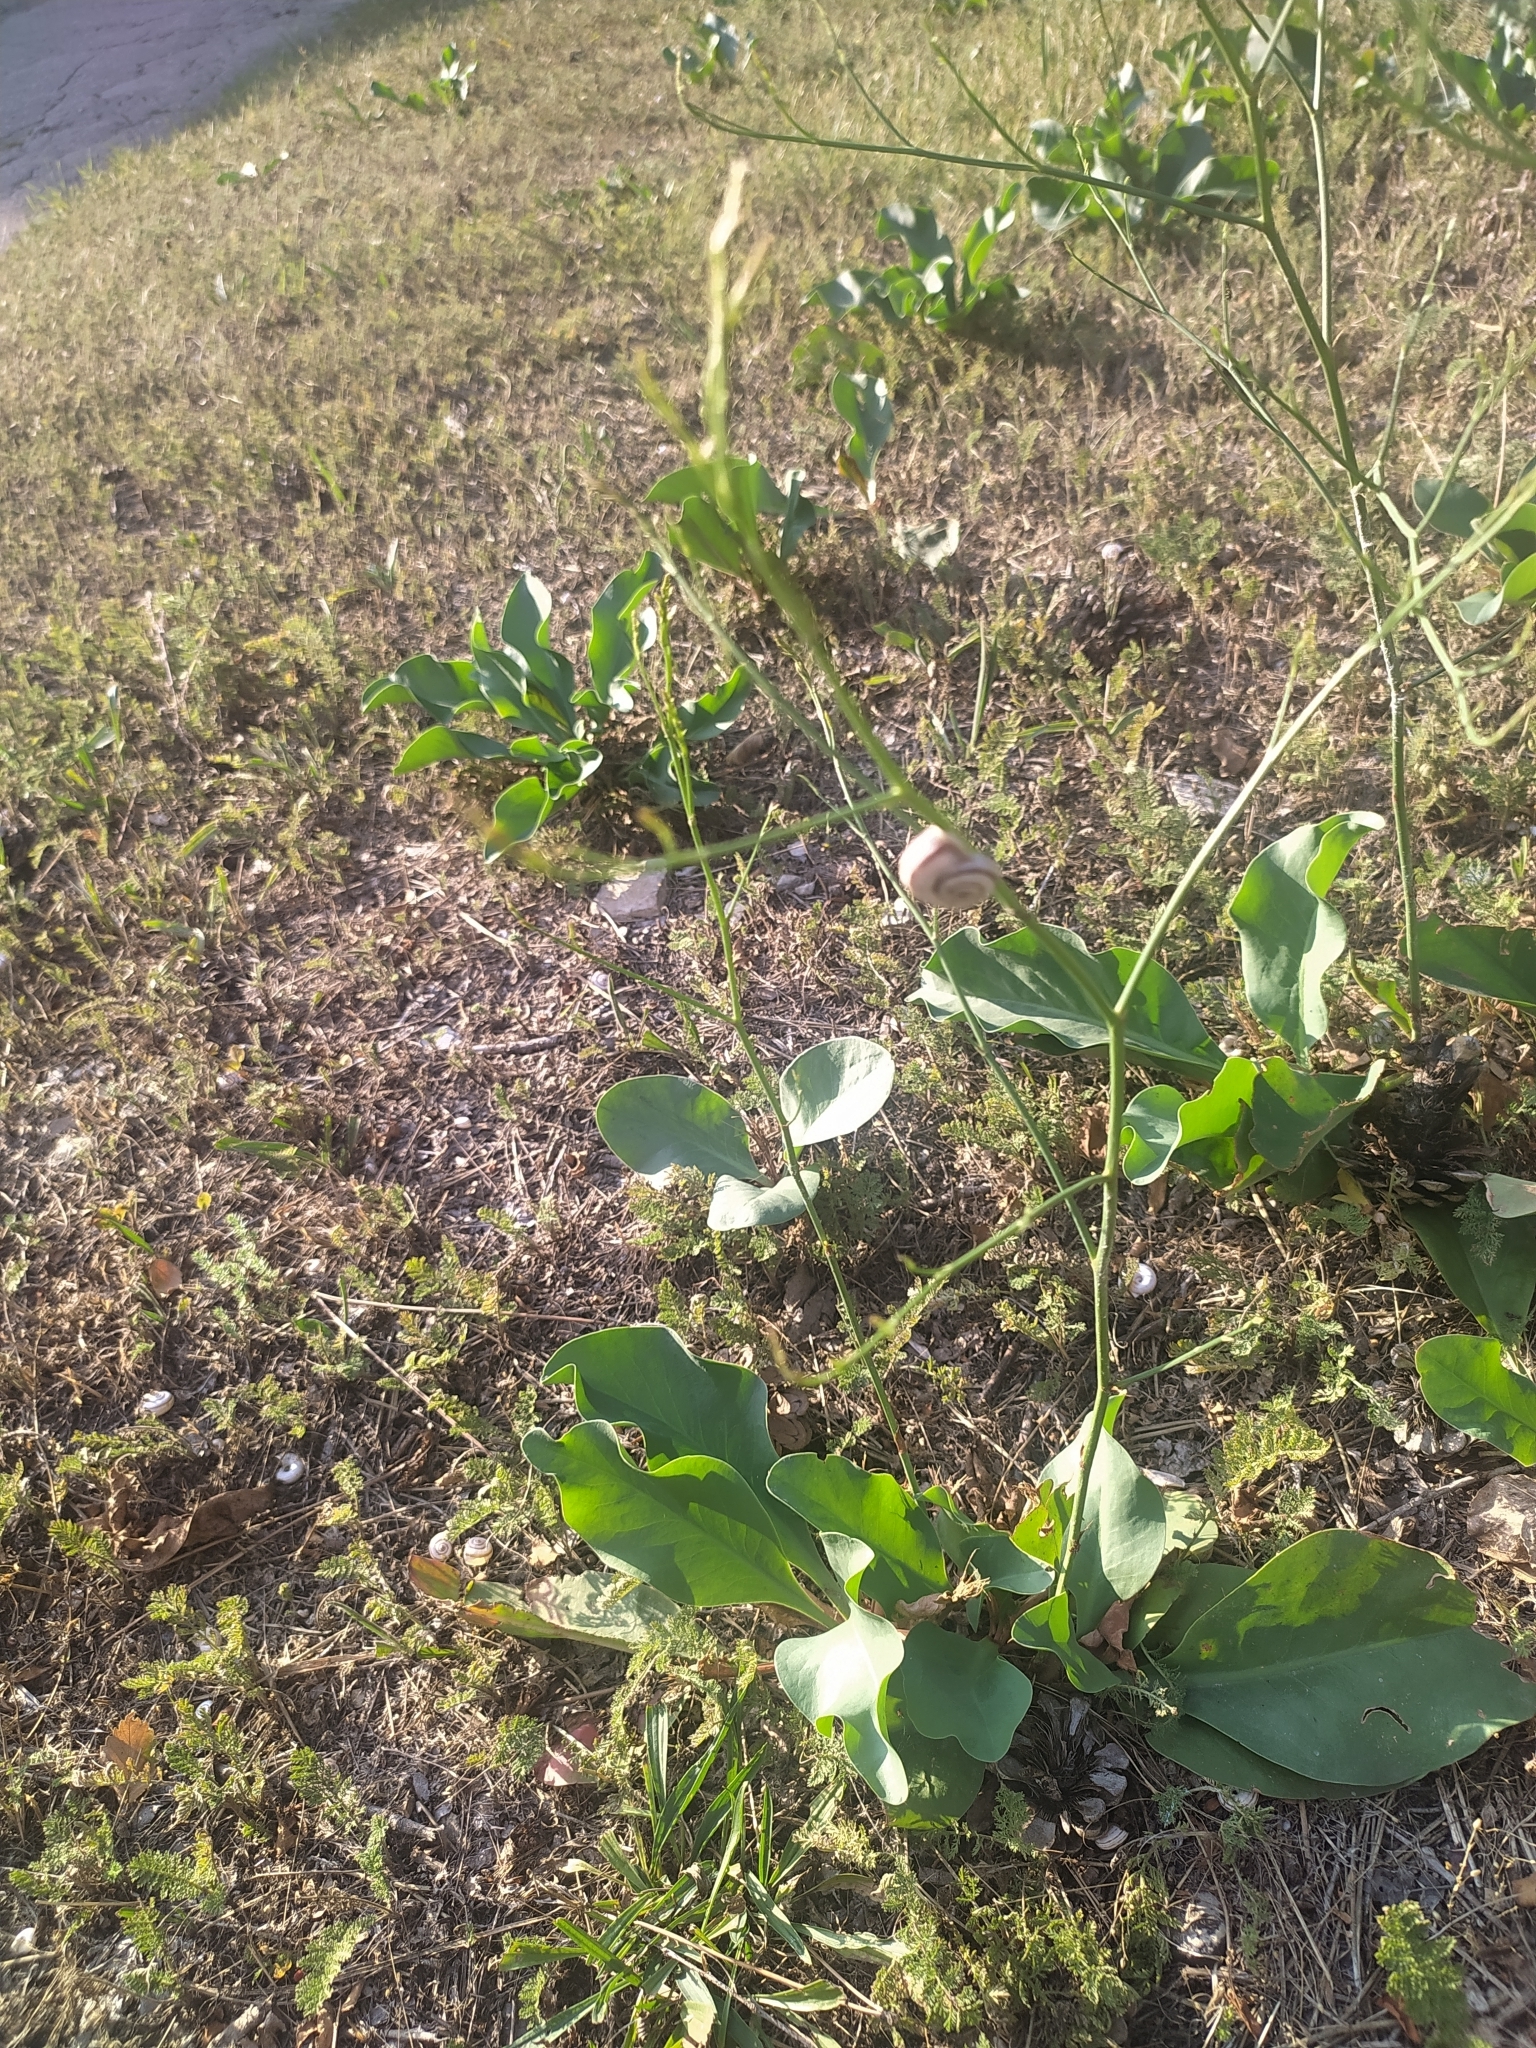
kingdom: Animalia
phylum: Mollusca
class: Gastropoda
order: Stylommatophora
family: Geomitridae
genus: Xeropicta
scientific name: Xeropicta derbentina
